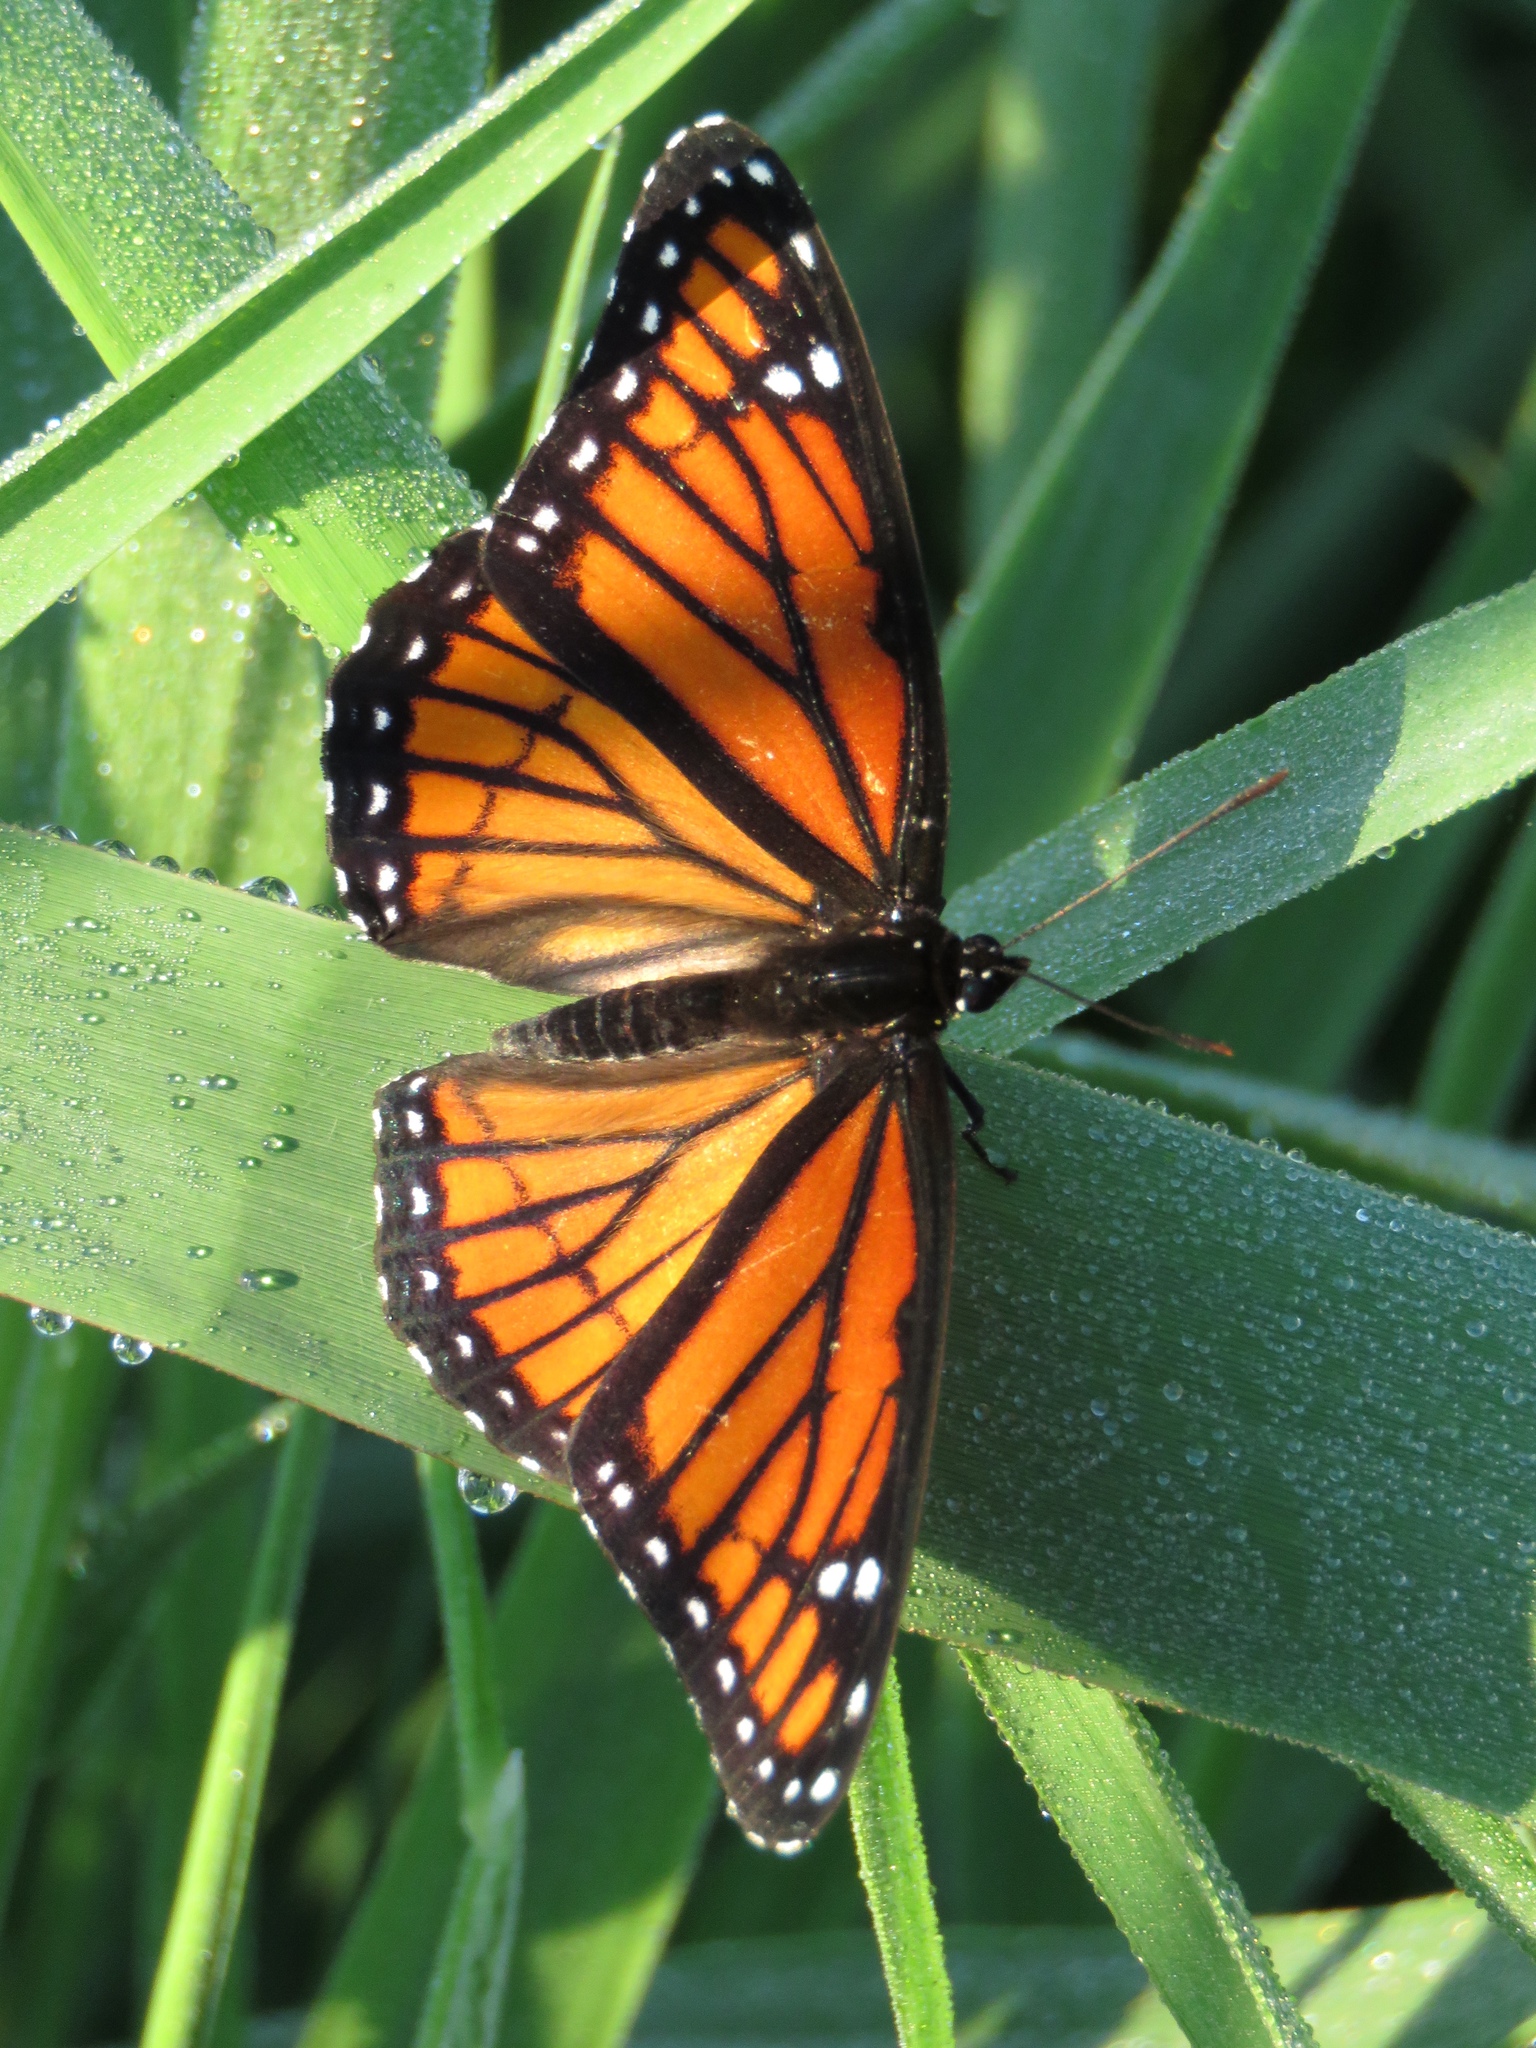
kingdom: Animalia
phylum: Arthropoda
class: Insecta
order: Lepidoptera
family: Nymphalidae
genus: Limenitis
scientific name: Limenitis archippus
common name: Viceroy
